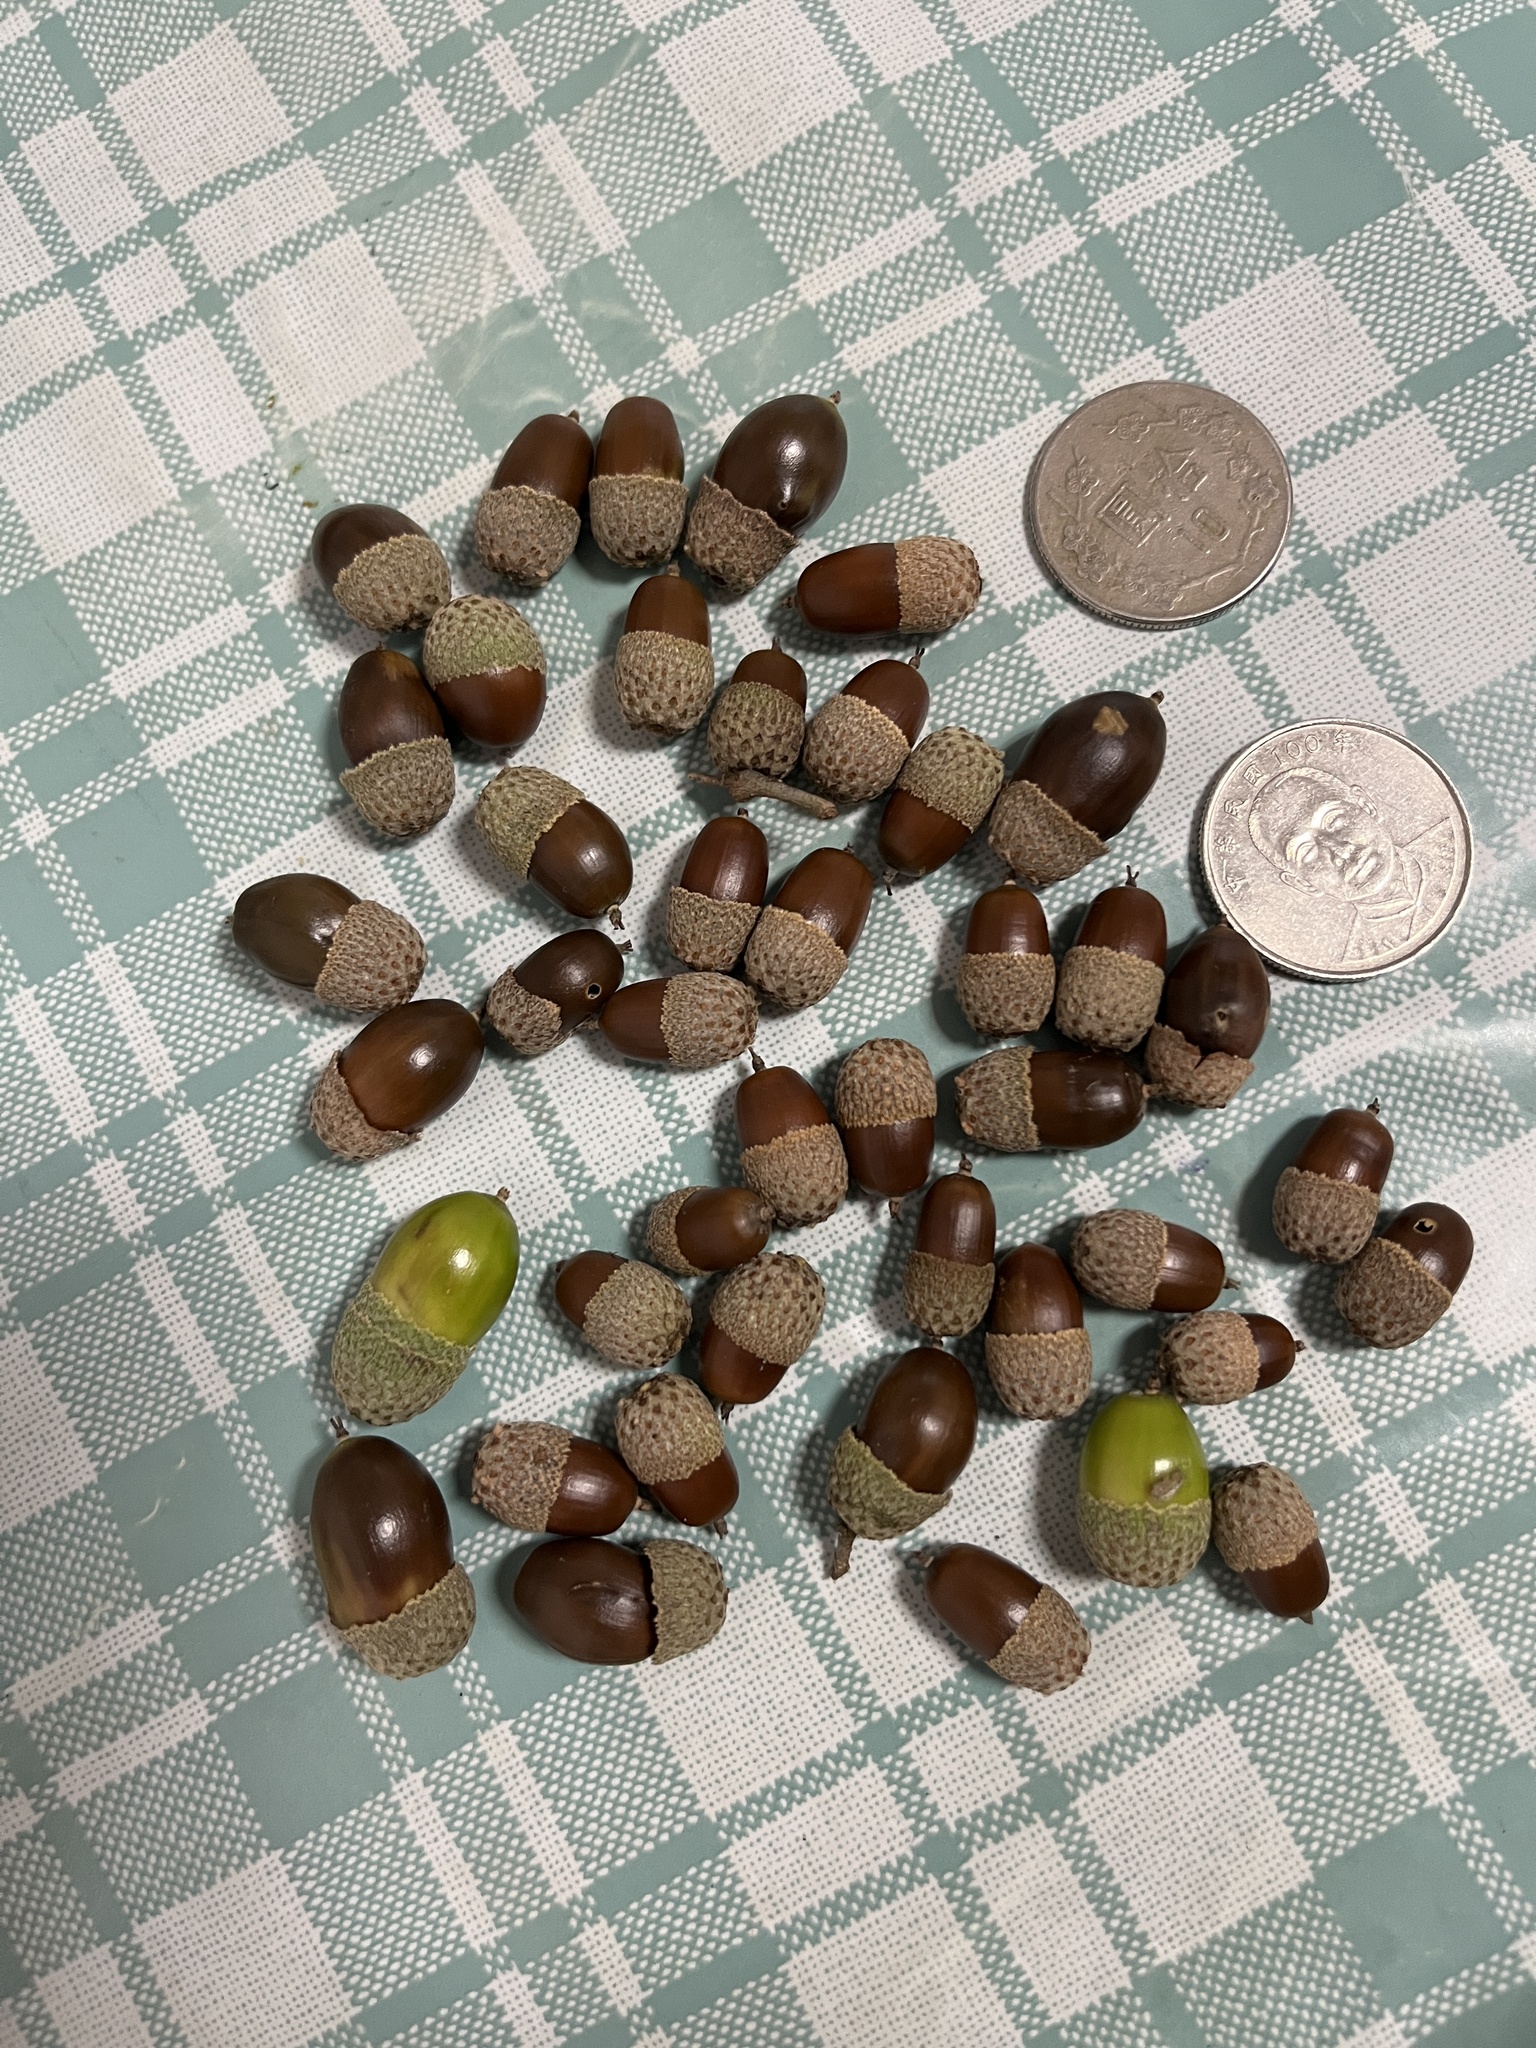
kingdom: Plantae
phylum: Tracheophyta
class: Magnoliopsida
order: Fagales
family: Fagaceae
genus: Quercus
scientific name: Quercus tatakaensis
